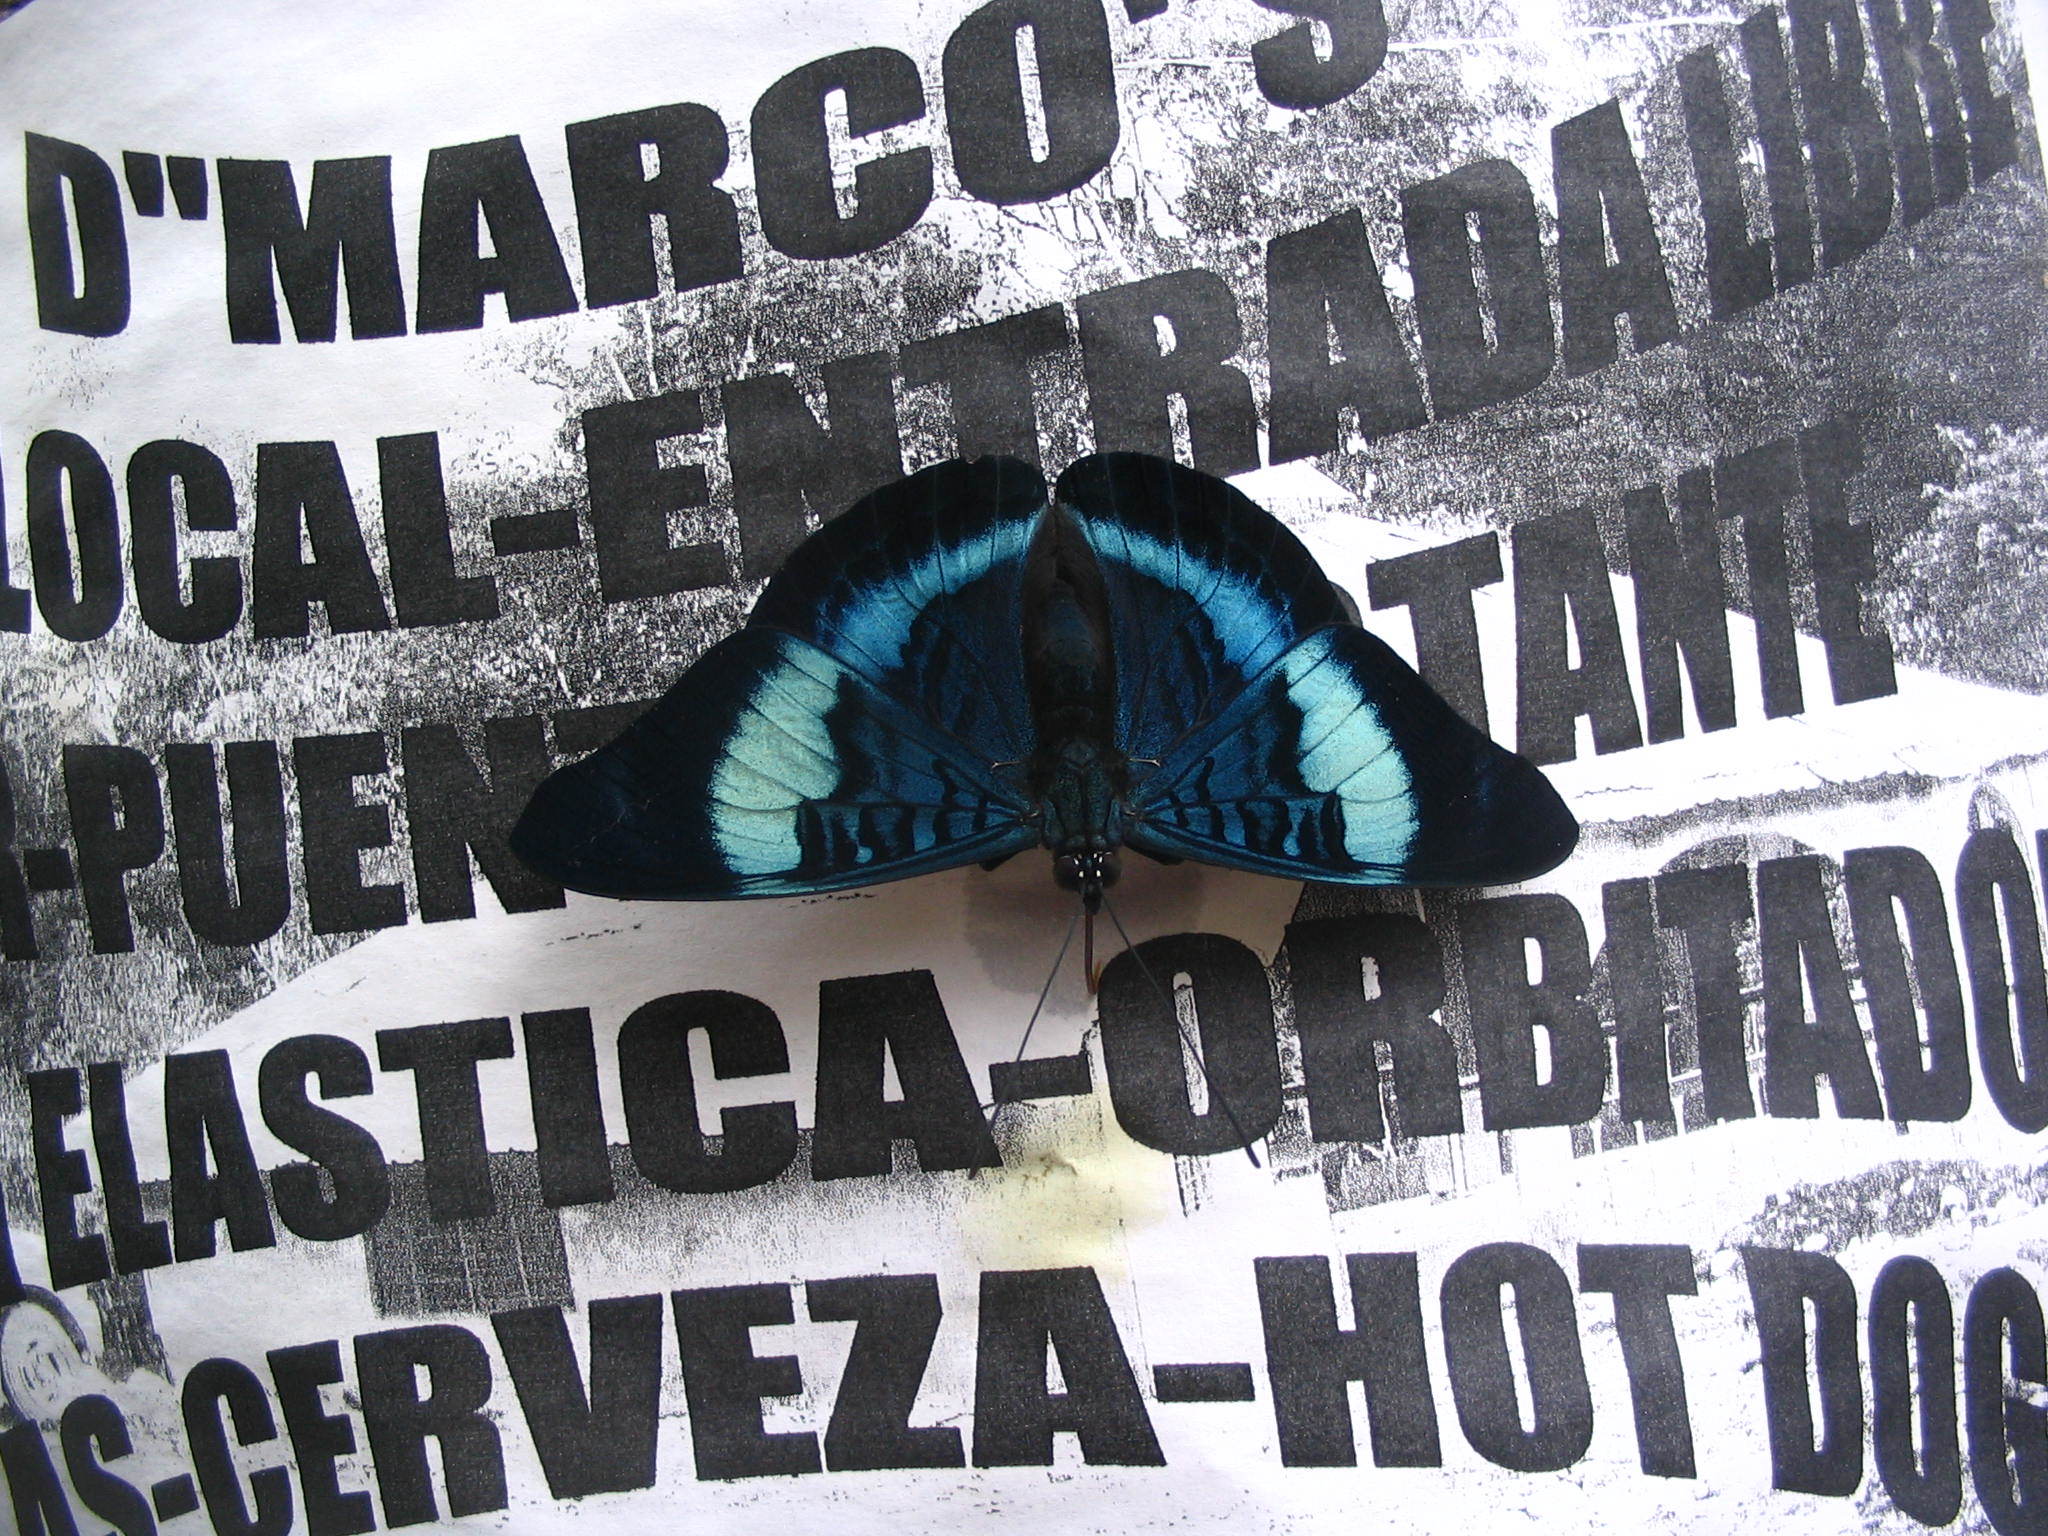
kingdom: Animalia
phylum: Arthropoda
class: Insecta
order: Lepidoptera
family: Nymphalidae
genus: Panacea
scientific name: Panacea prola
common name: Red flasher
